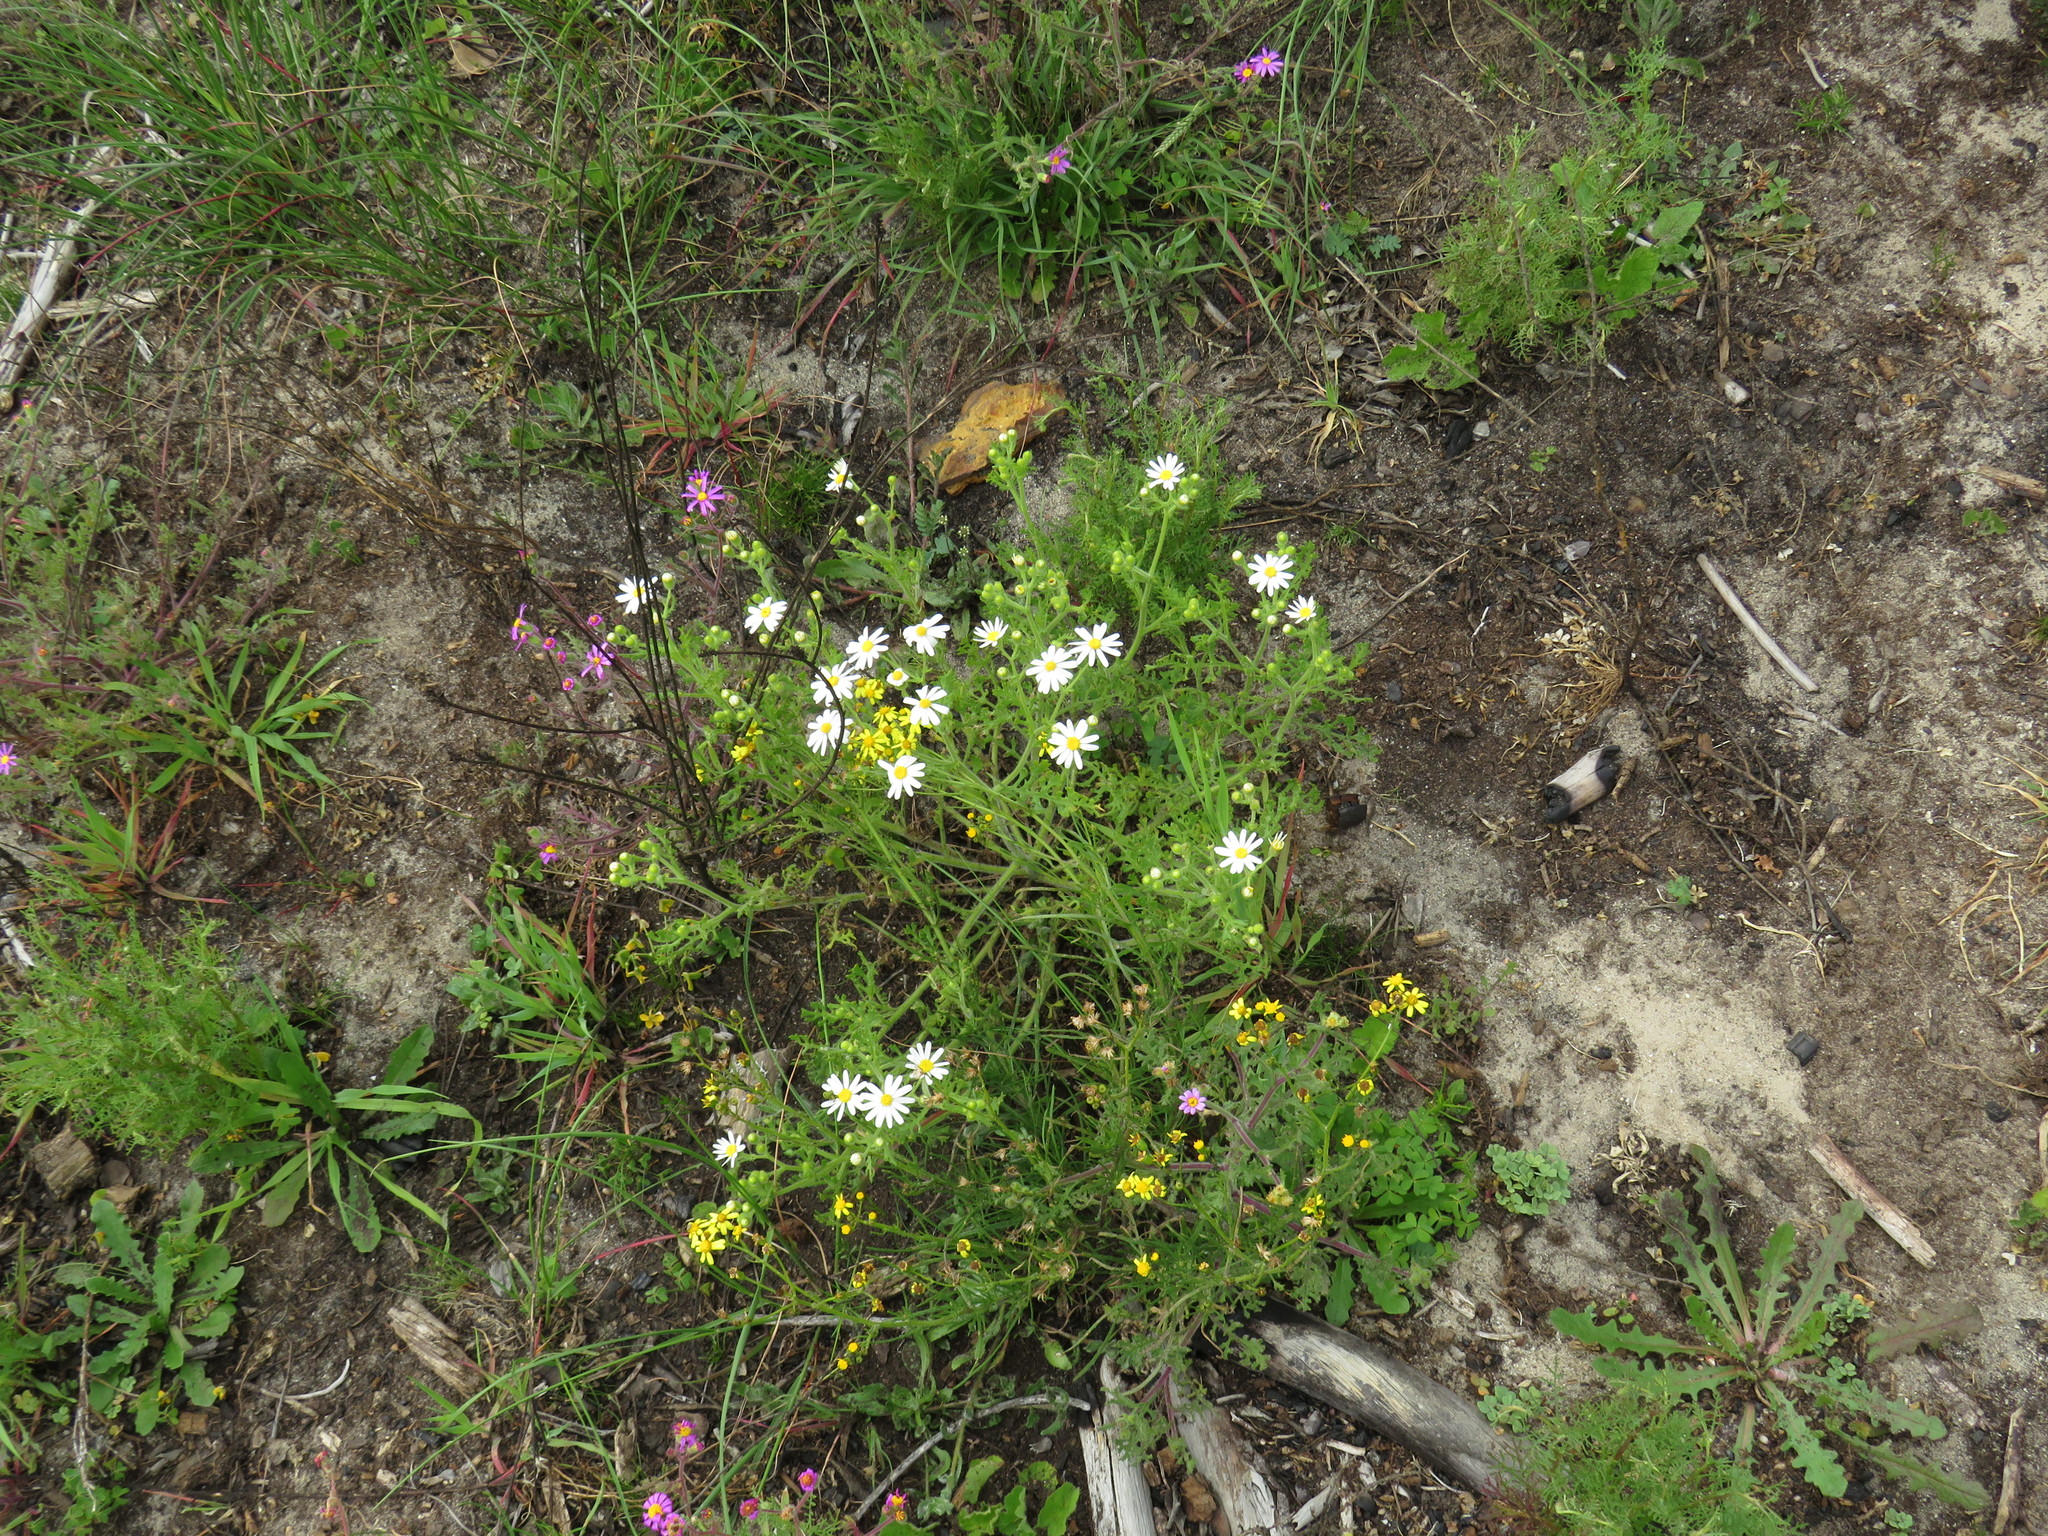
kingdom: Plantae
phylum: Tracheophyta
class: Magnoliopsida
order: Asterales
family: Asteraceae
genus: Senecio
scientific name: Senecio arenarius
